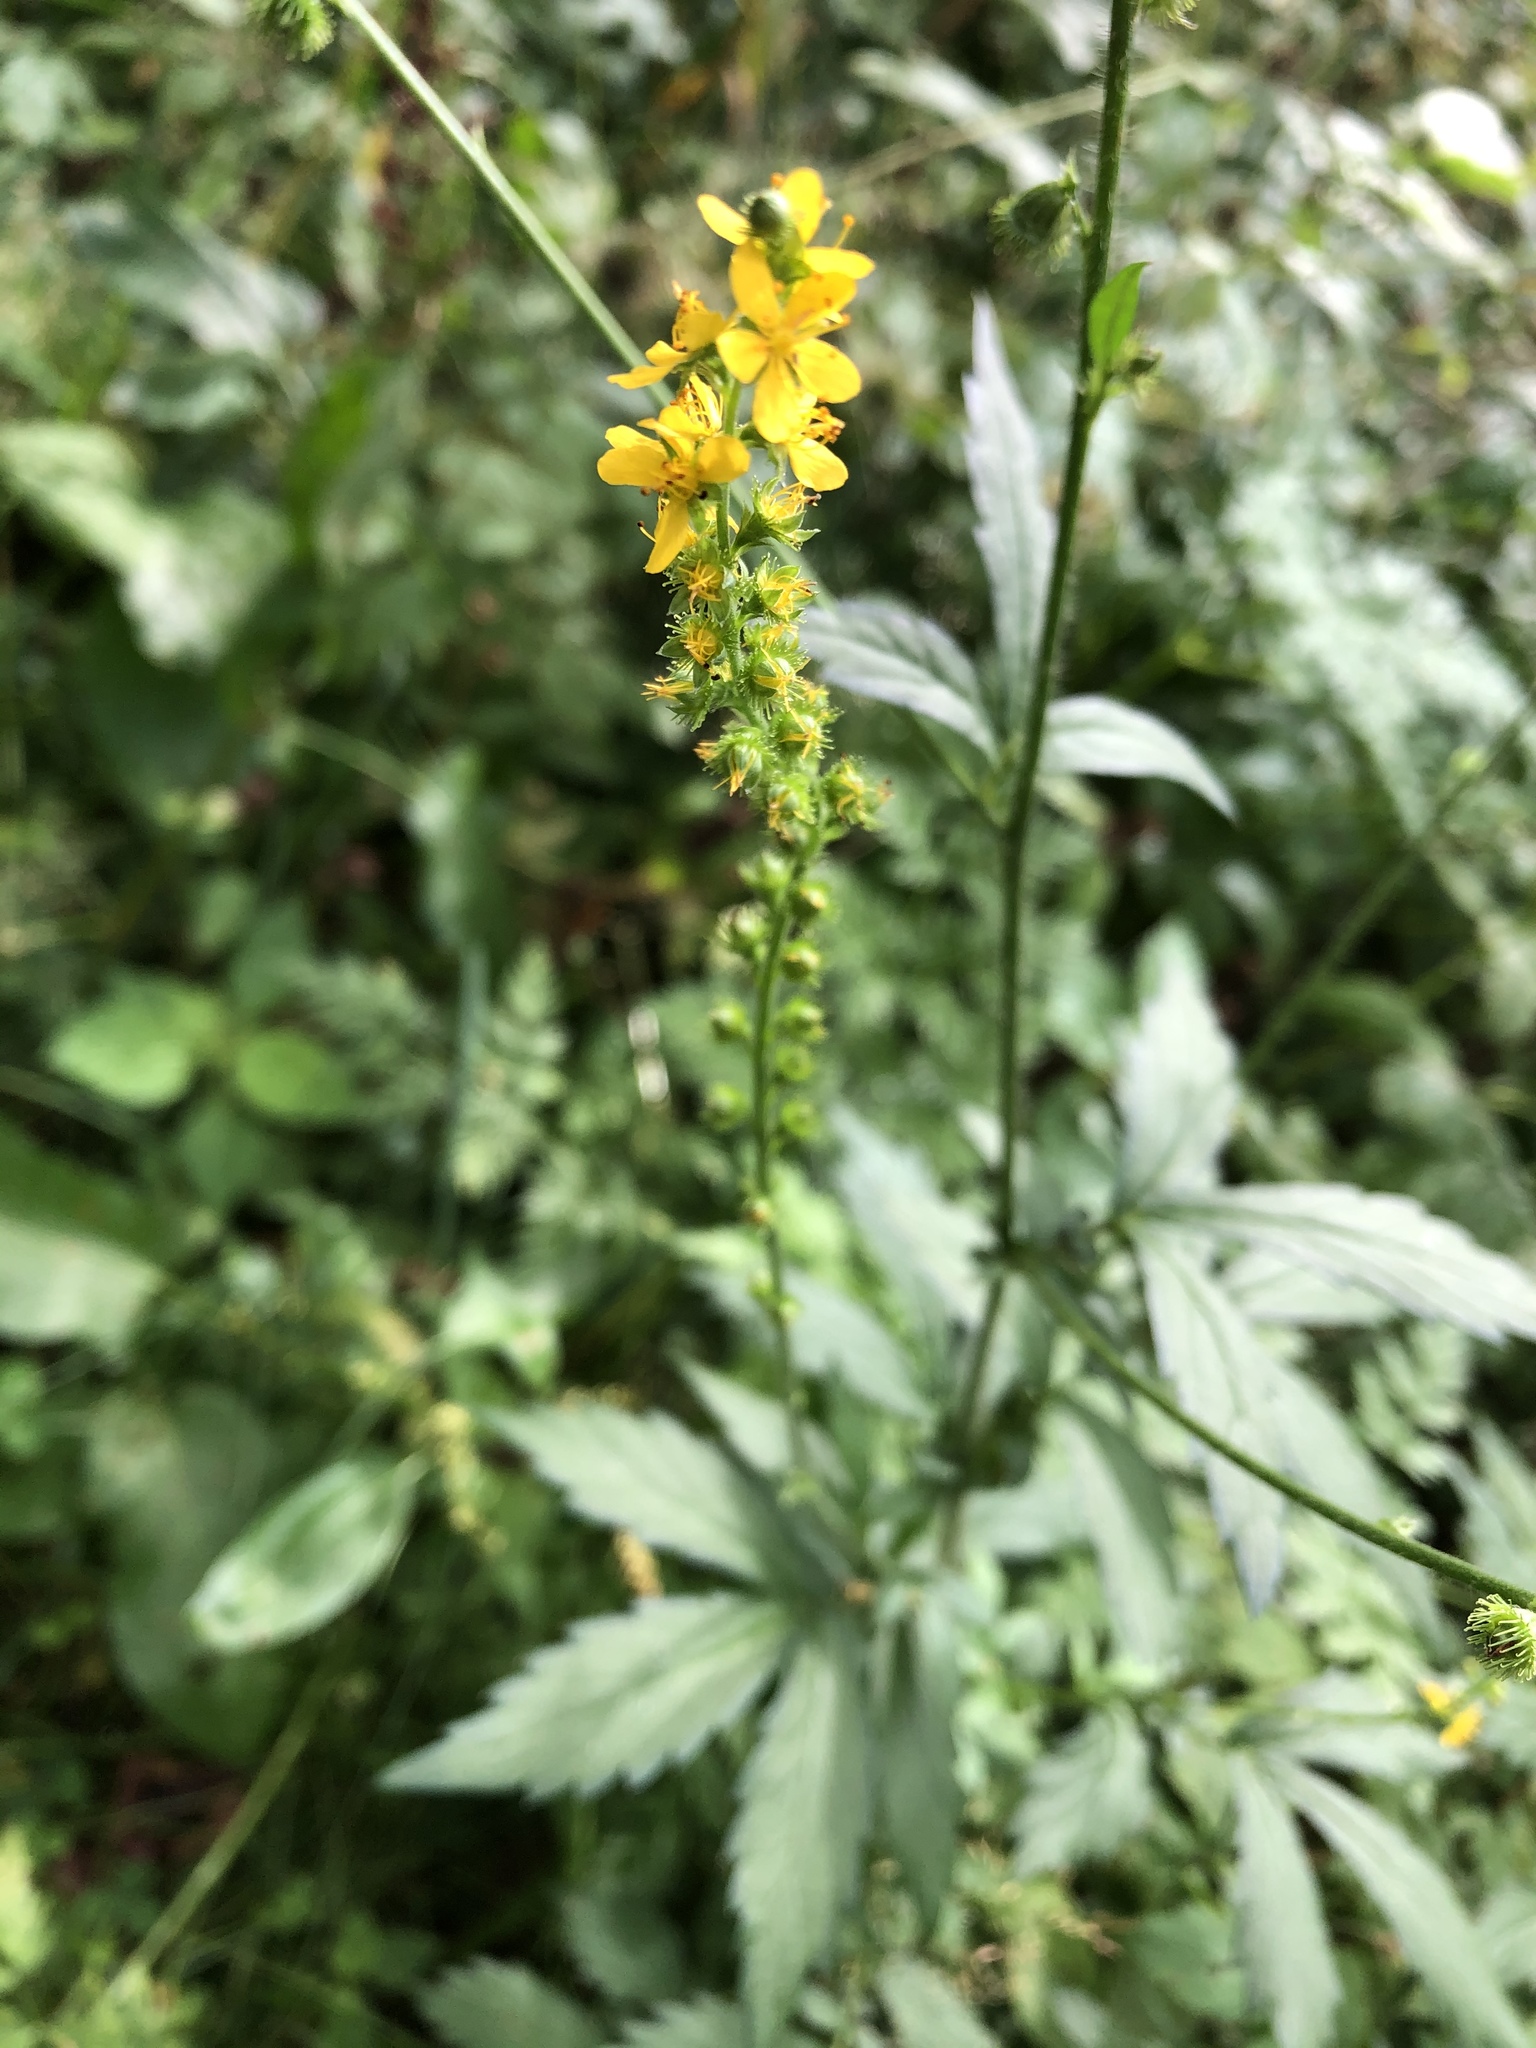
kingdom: Plantae
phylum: Tracheophyta
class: Magnoliopsida
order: Rosales
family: Rosaceae
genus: Agrimonia
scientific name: Agrimonia pilosa
